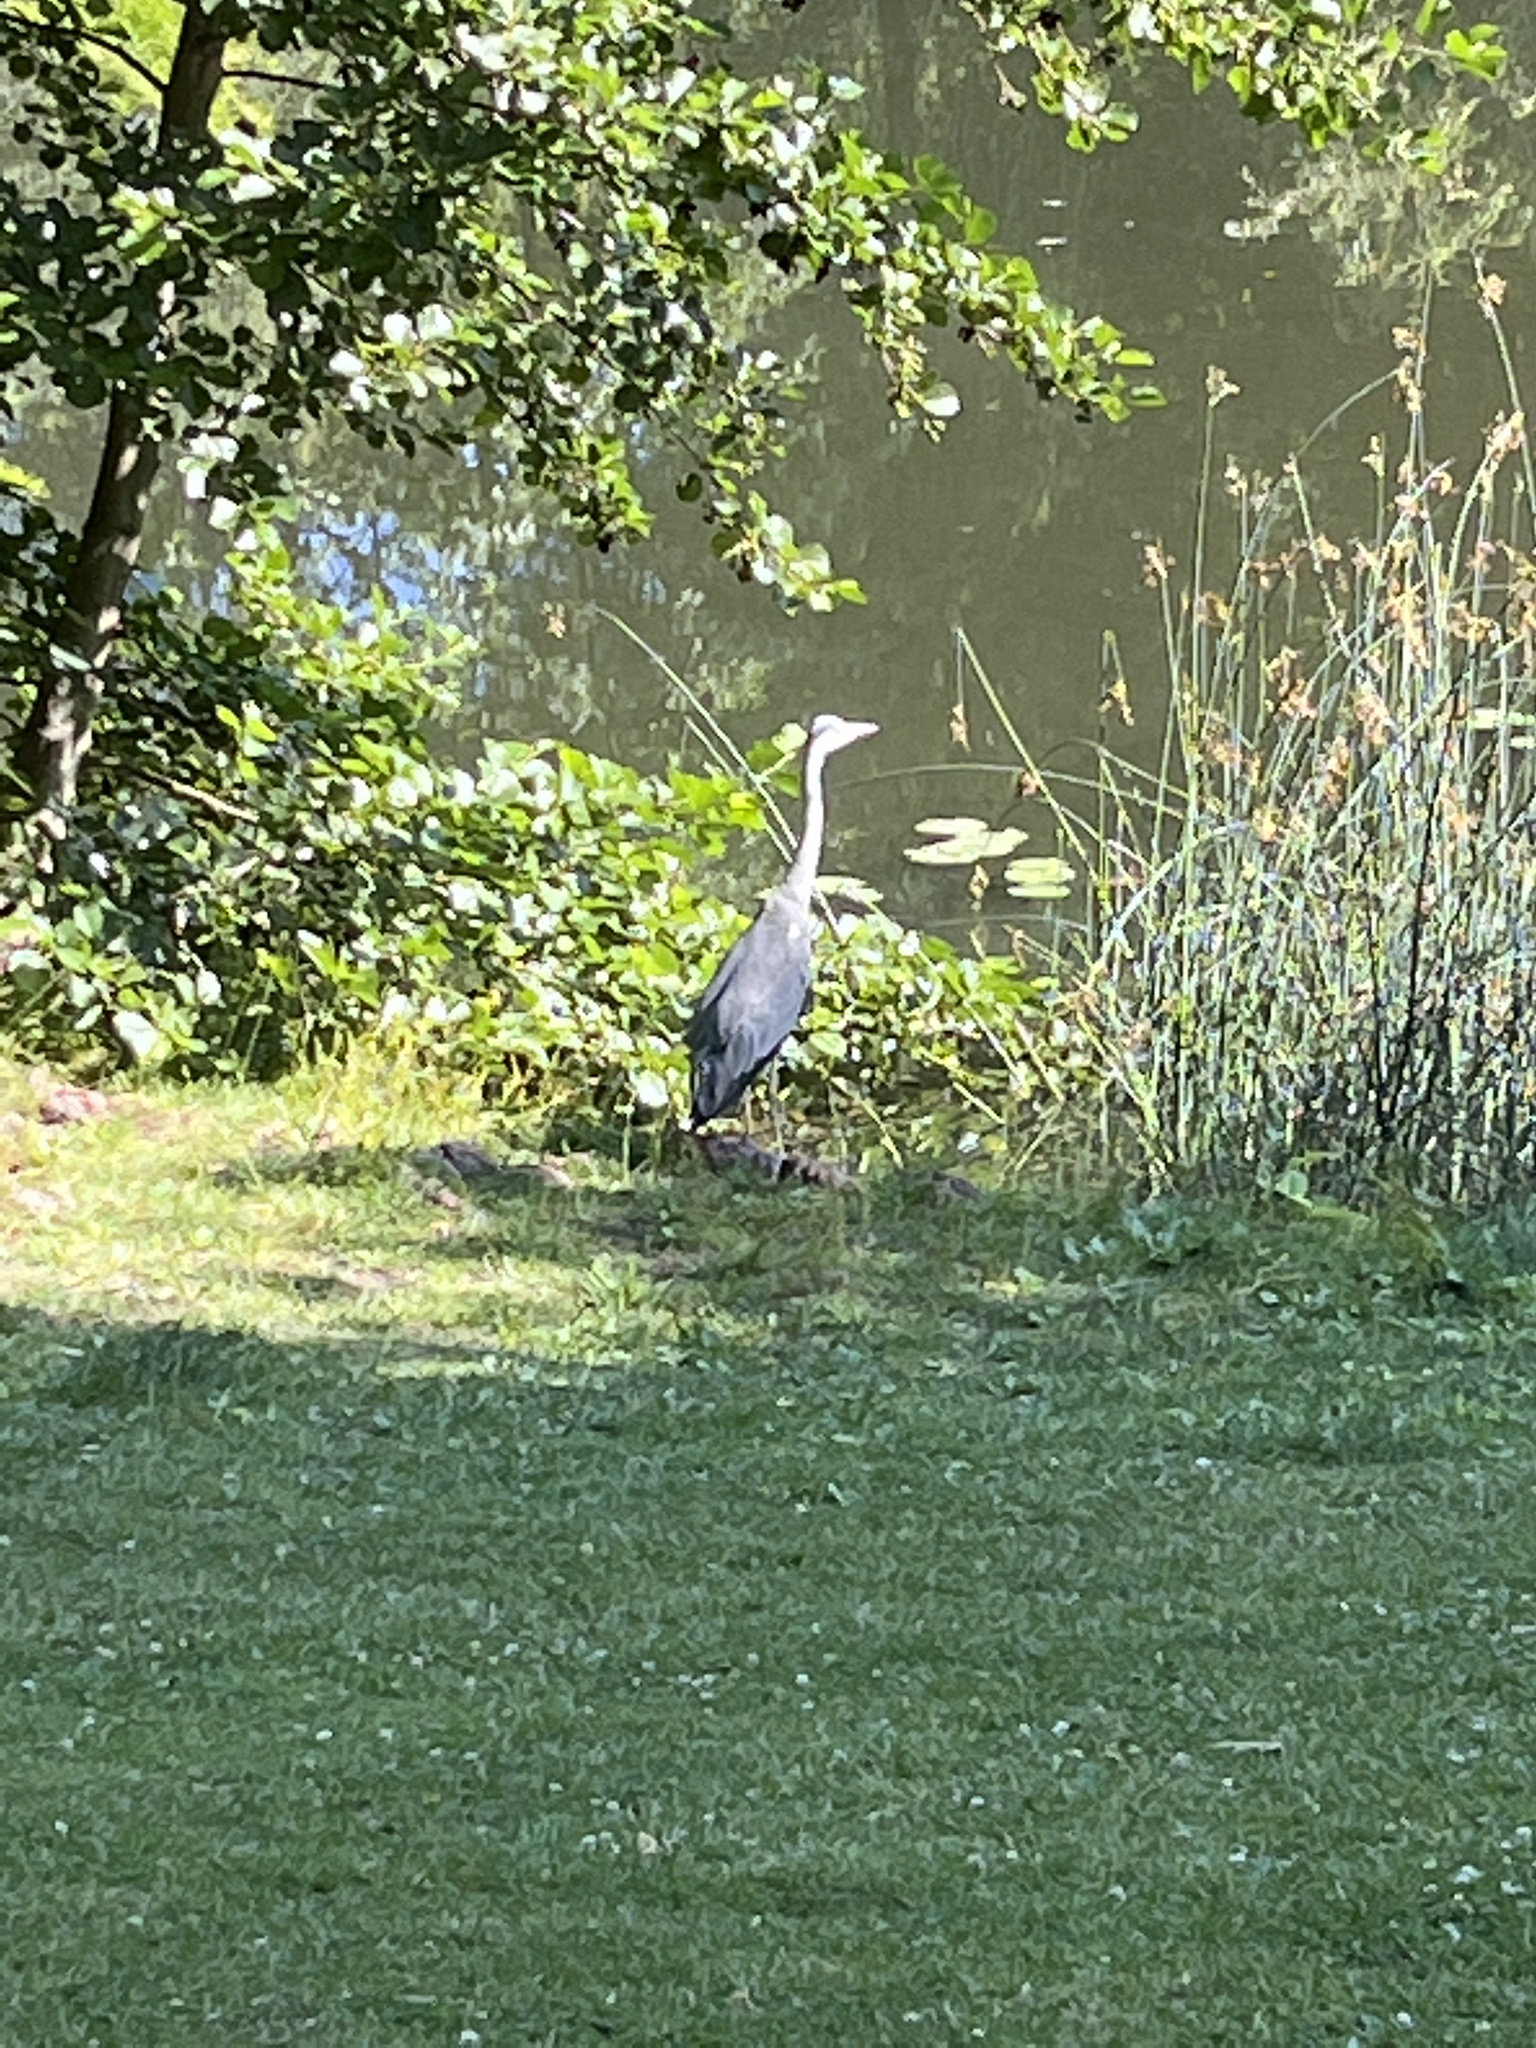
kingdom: Animalia
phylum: Chordata
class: Aves
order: Pelecaniformes
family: Ardeidae
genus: Ardea
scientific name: Ardea cinerea
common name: Grey heron
